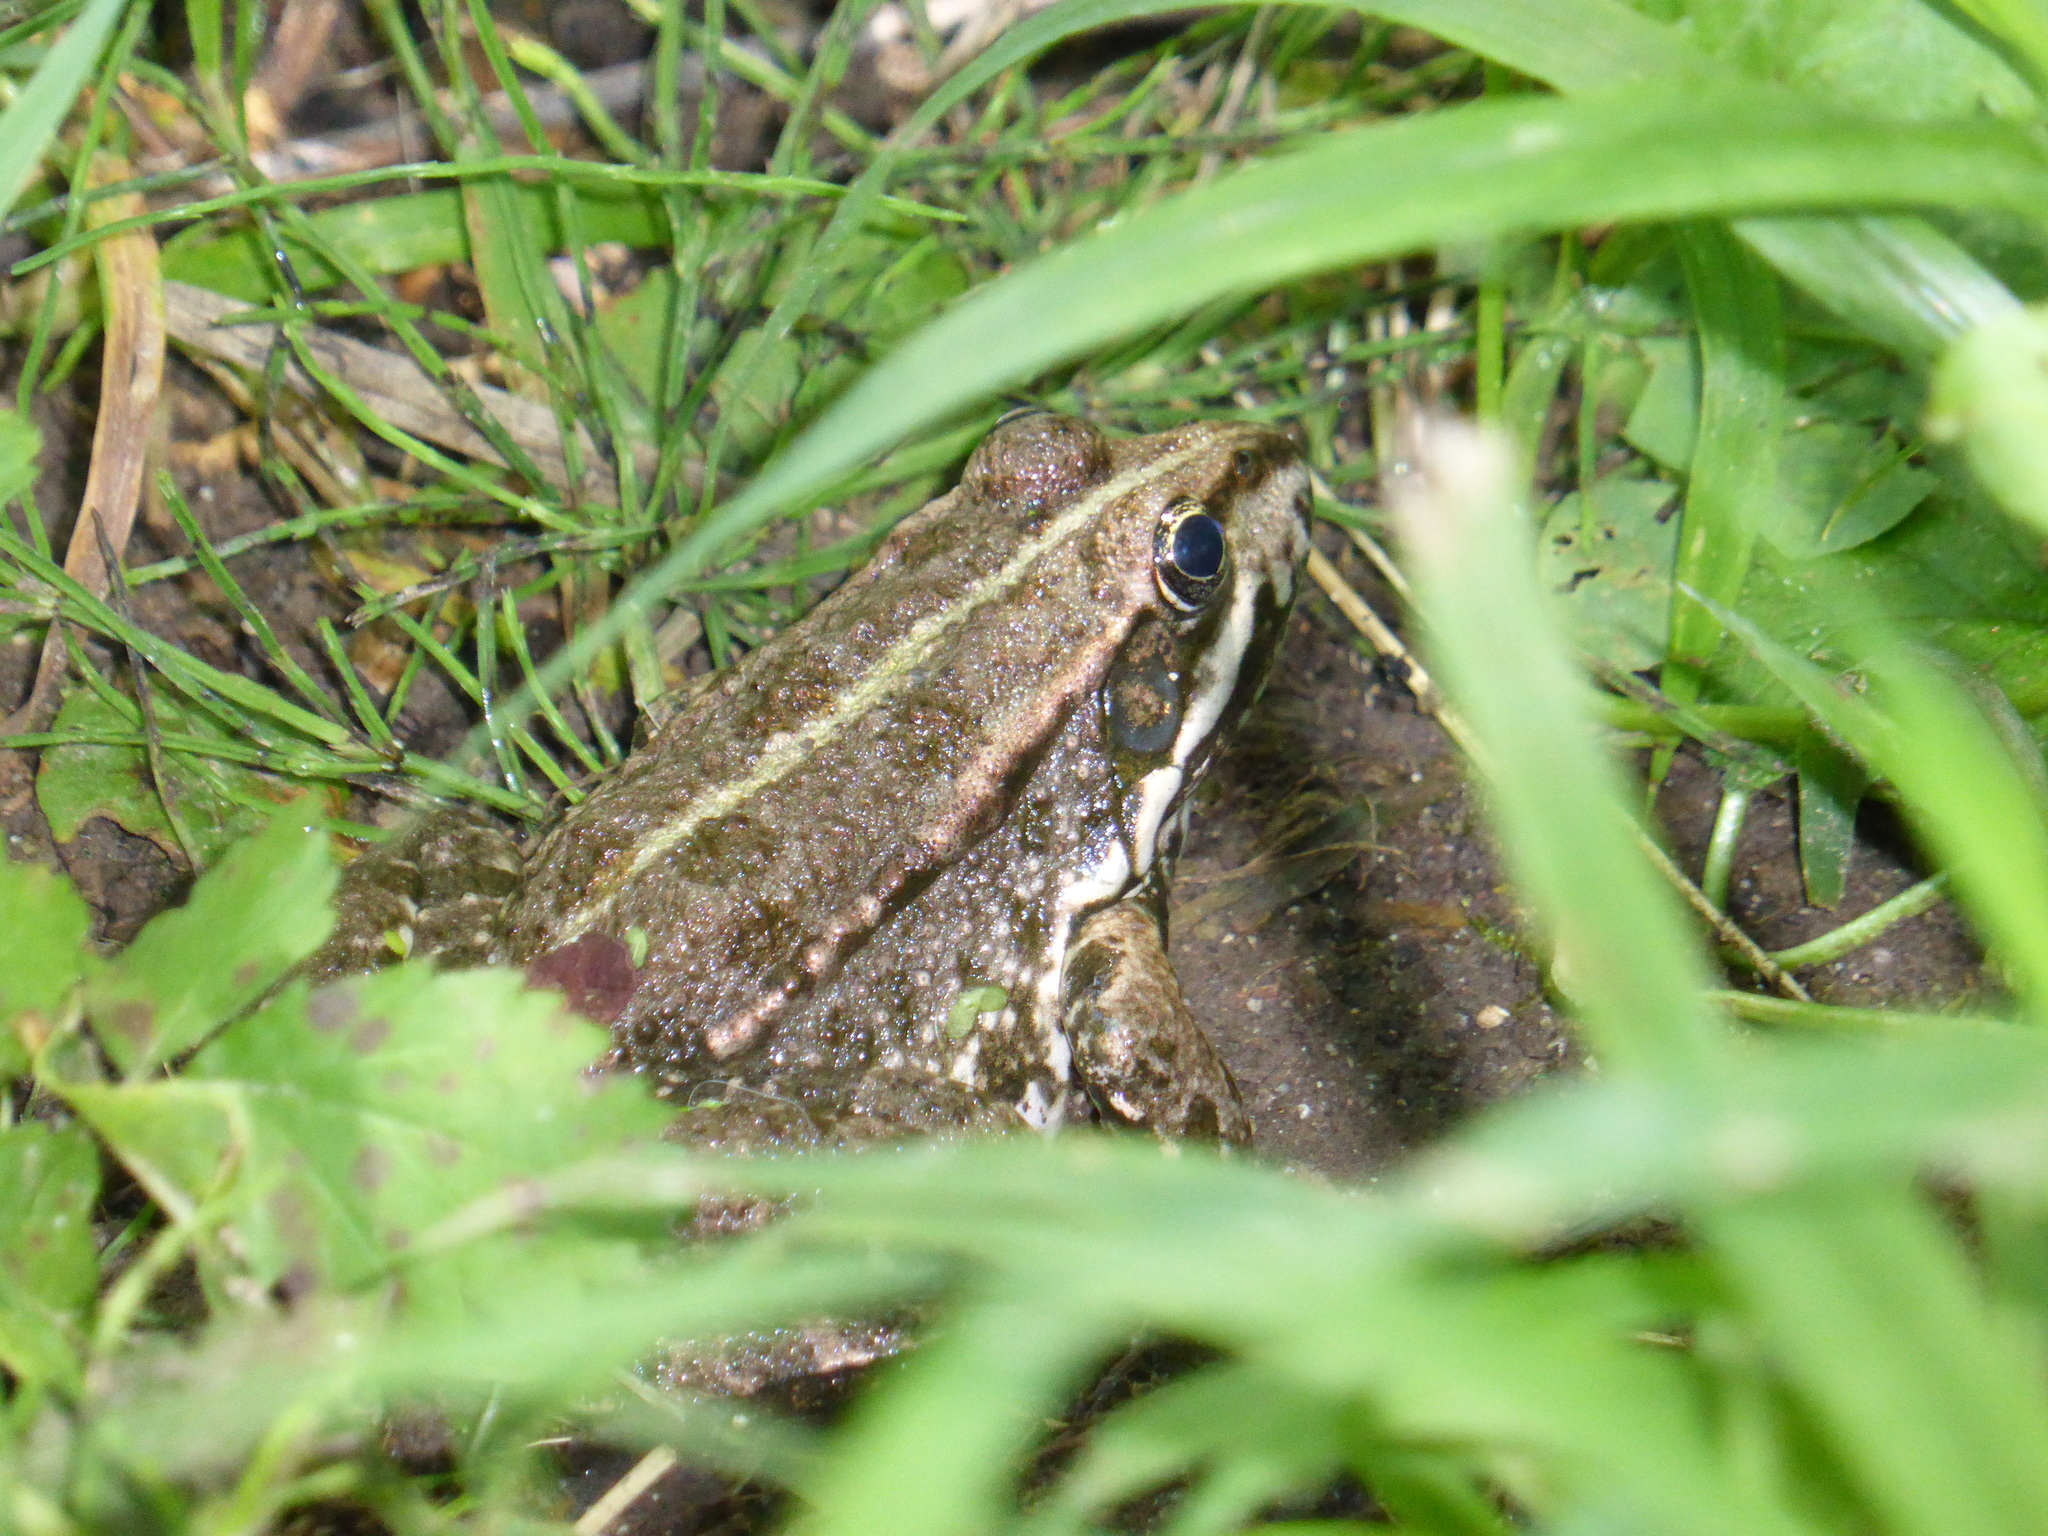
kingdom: Animalia
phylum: Chordata
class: Amphibia
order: Anura
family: Ranidae
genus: Pelophylax
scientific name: Pelophylax
